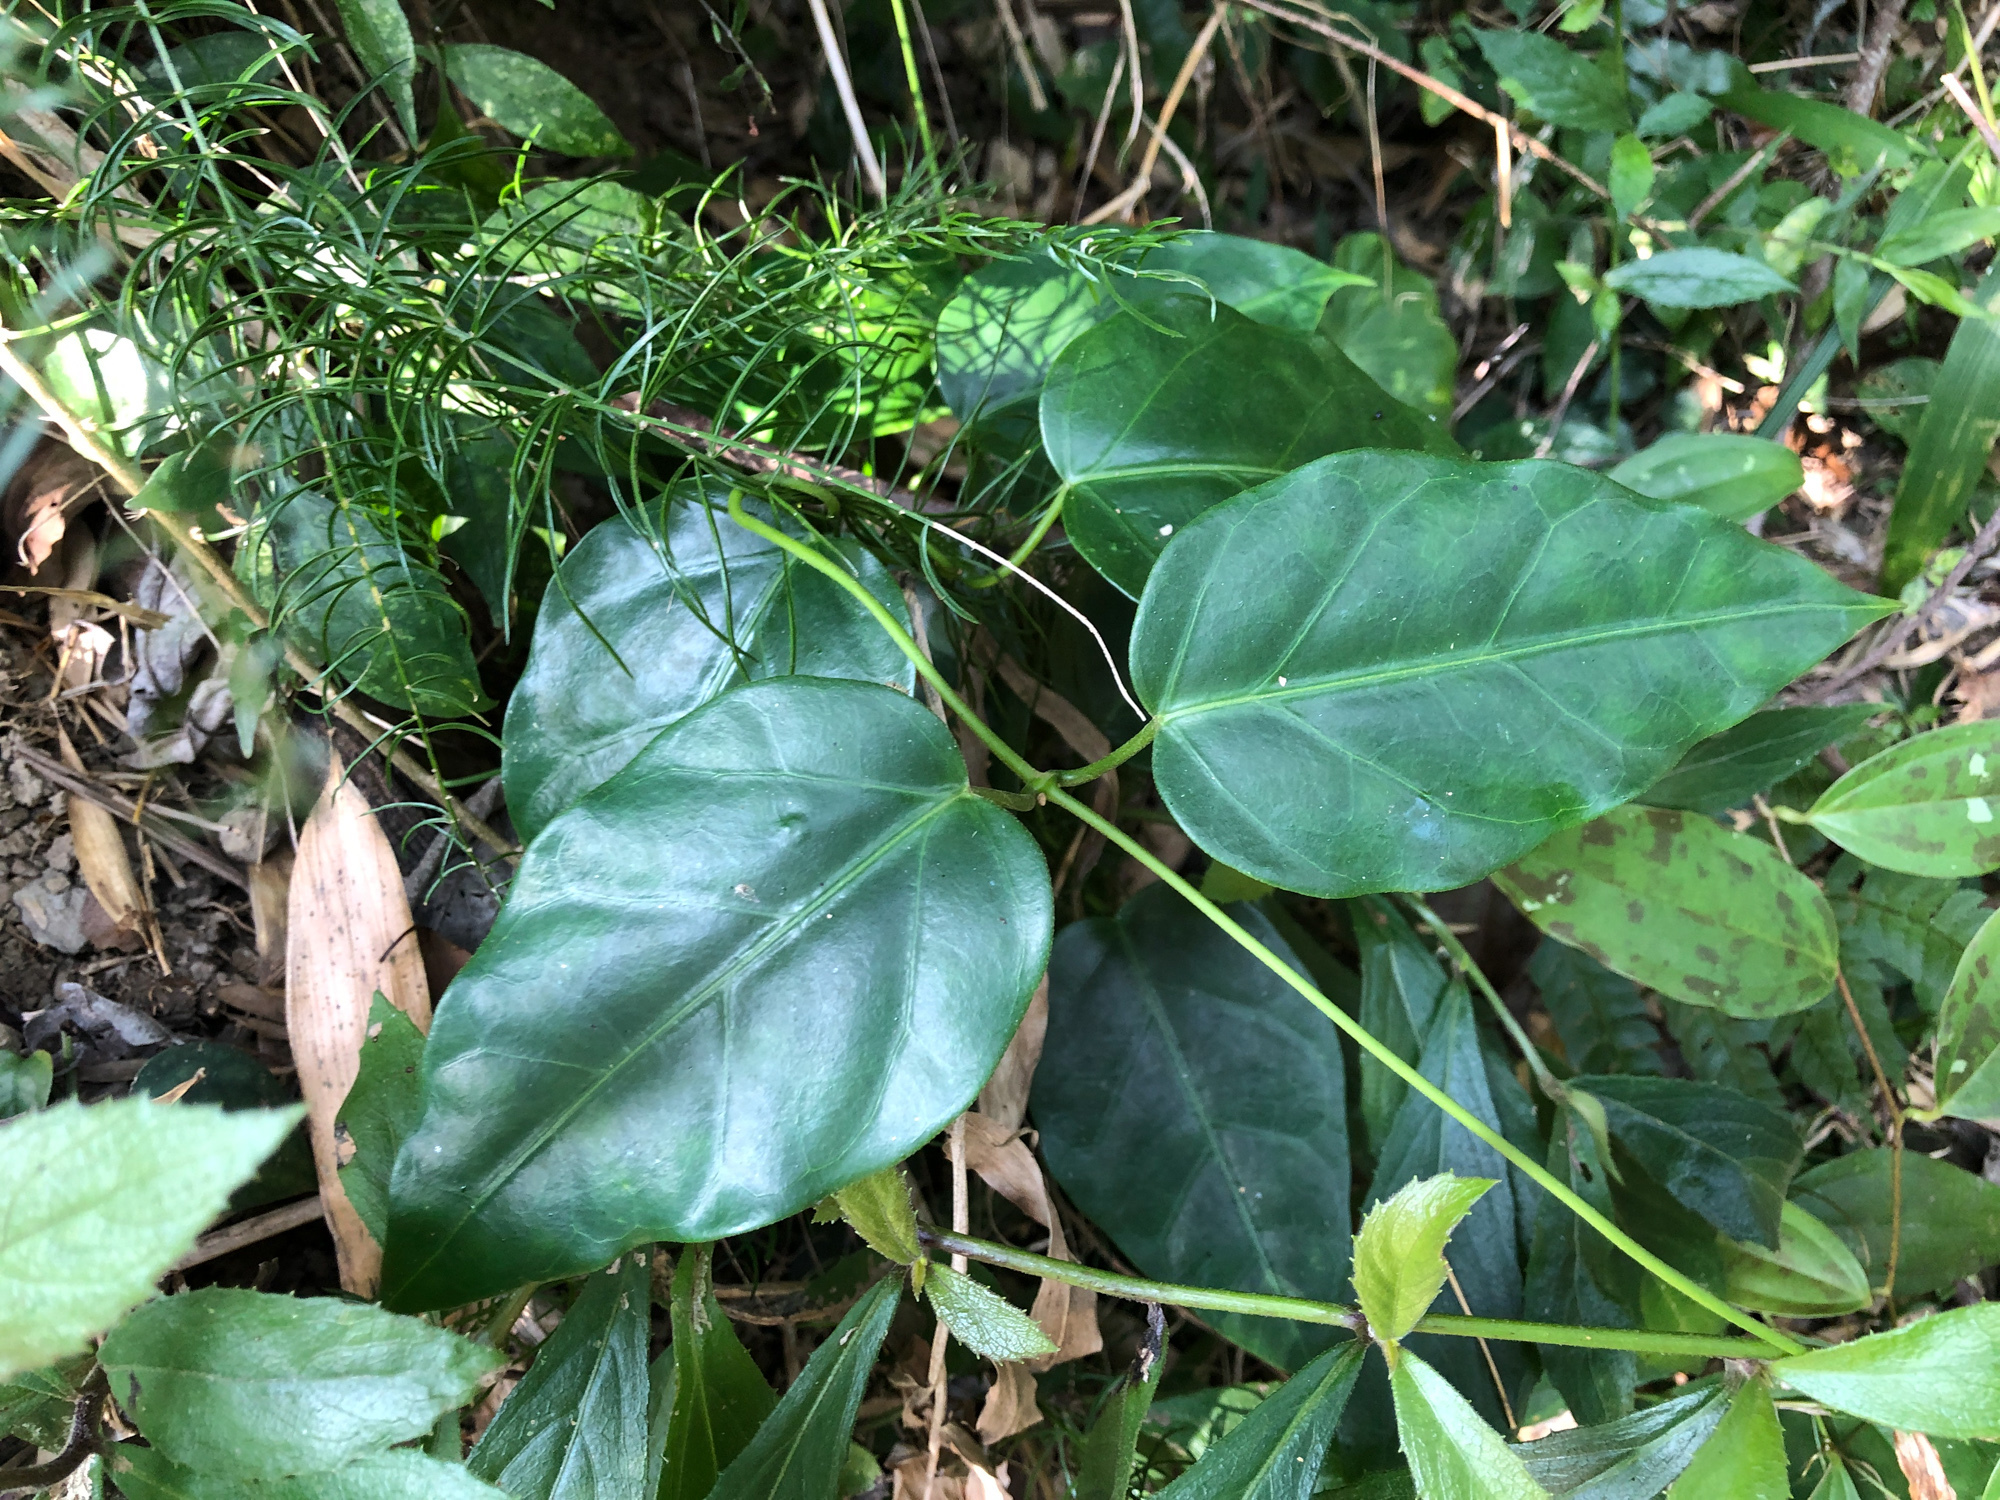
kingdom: Plantae
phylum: Tracheophyta
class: Magnoliopsida
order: Gentianales
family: Apocynaceae
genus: Sinomarsdenia
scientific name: Sinomarsdenia formosana
